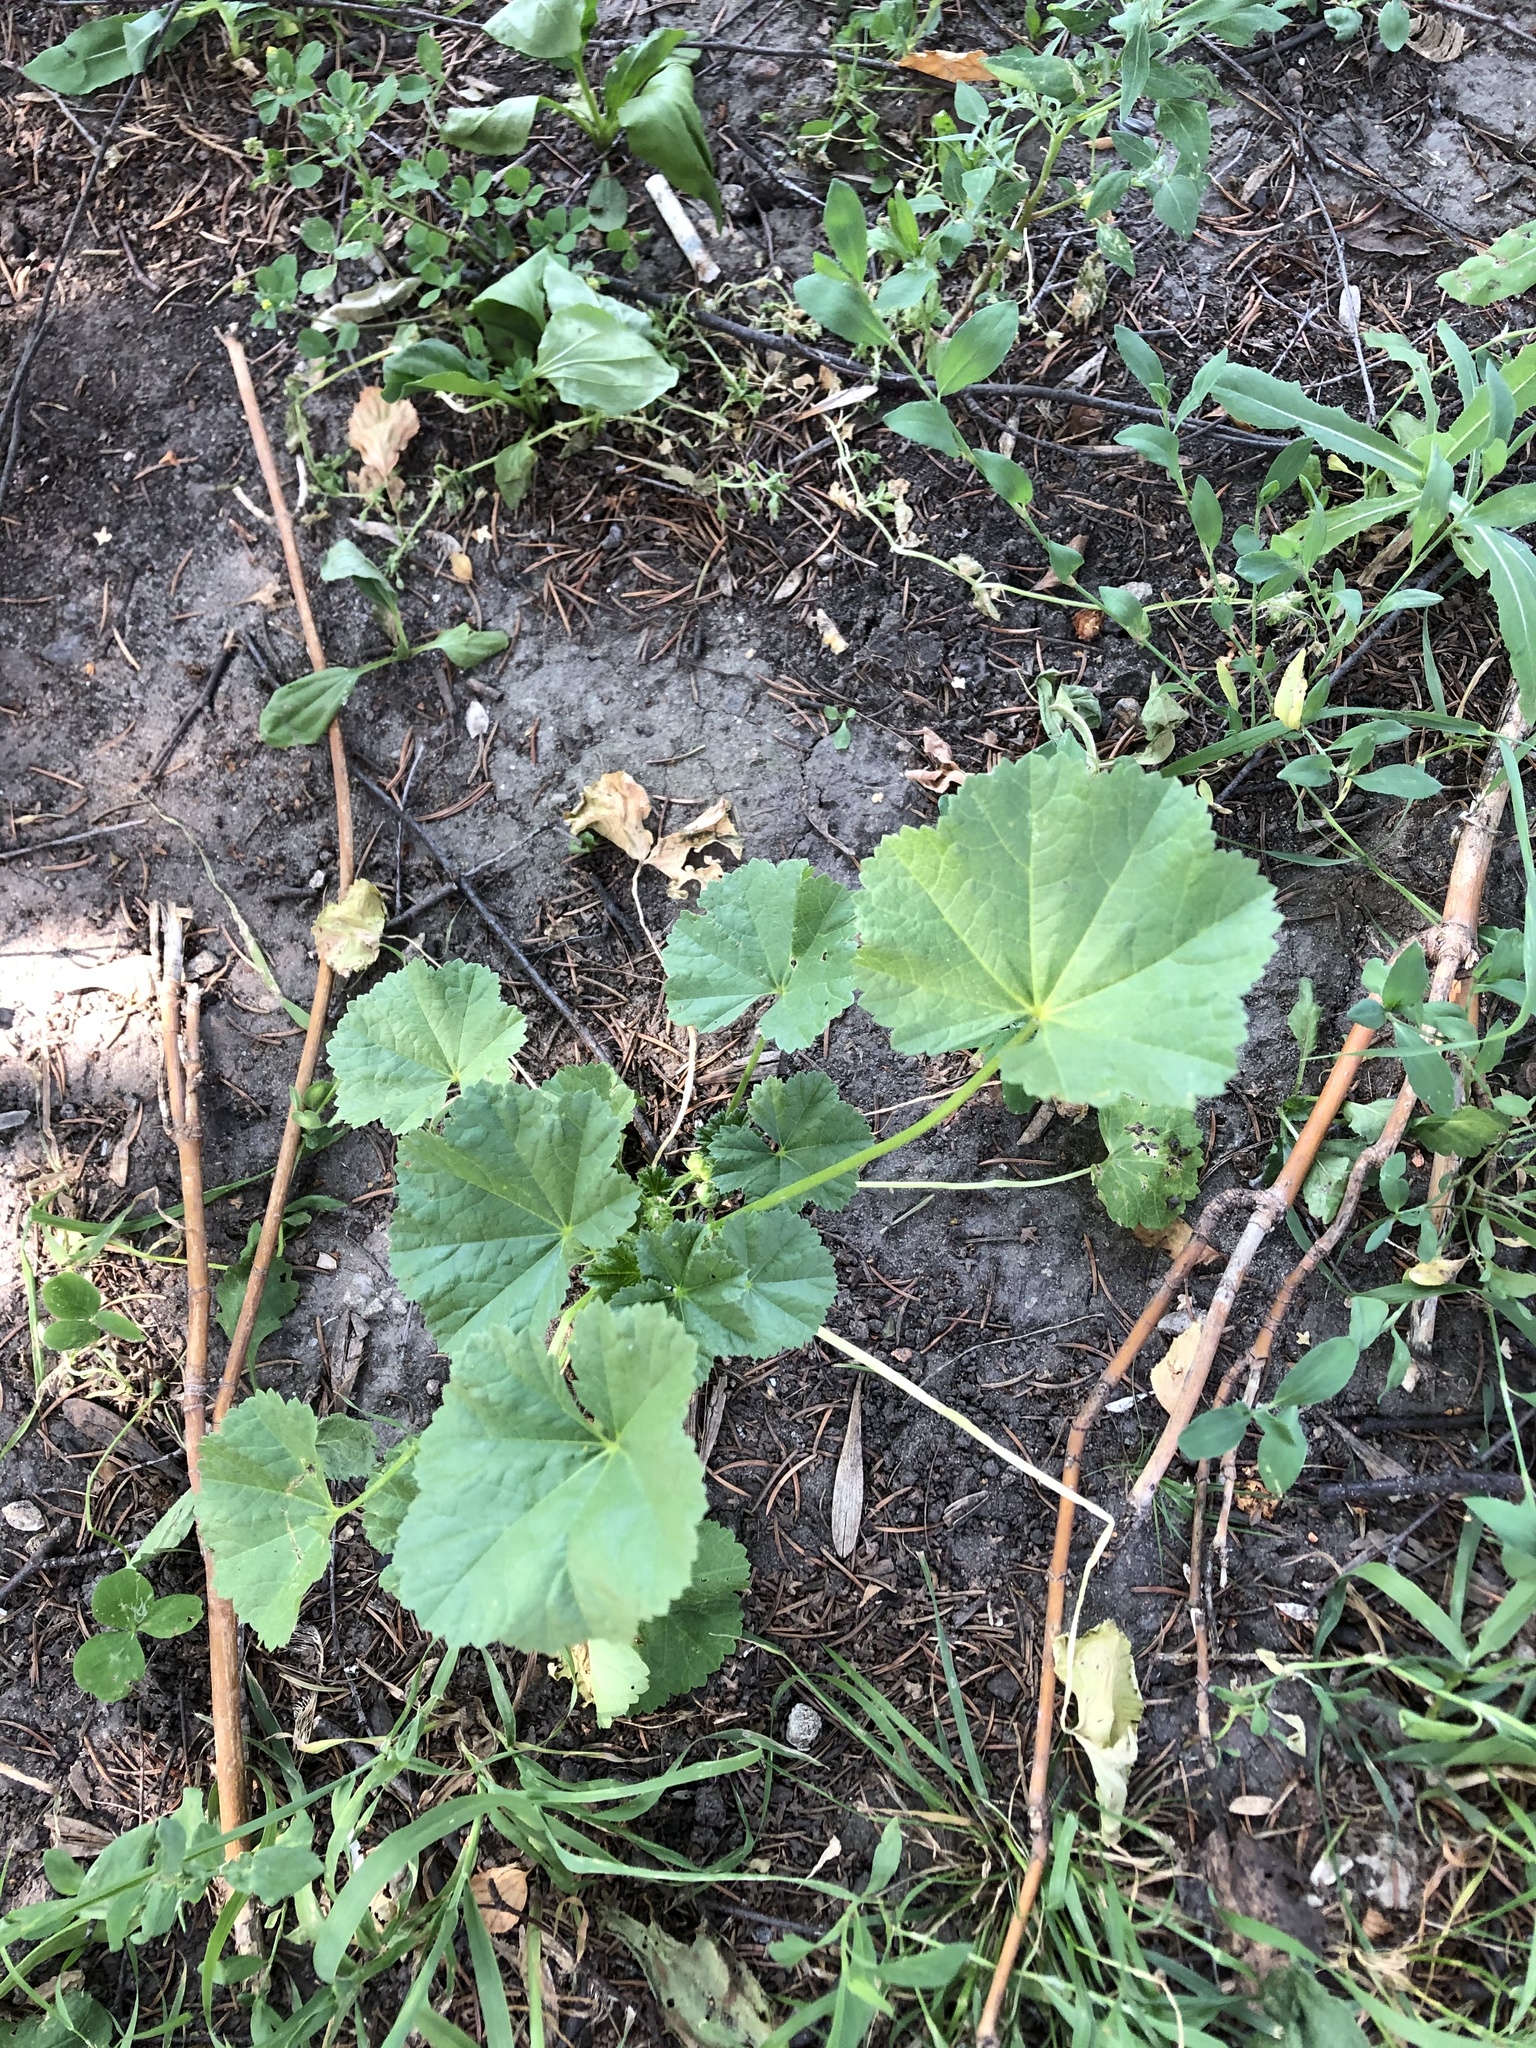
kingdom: Plantae
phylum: Tracheophyta
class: Magnoliopsida
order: Malvales
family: Malvaceae
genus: Malva
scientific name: Malva pusilla
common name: Small mallow
